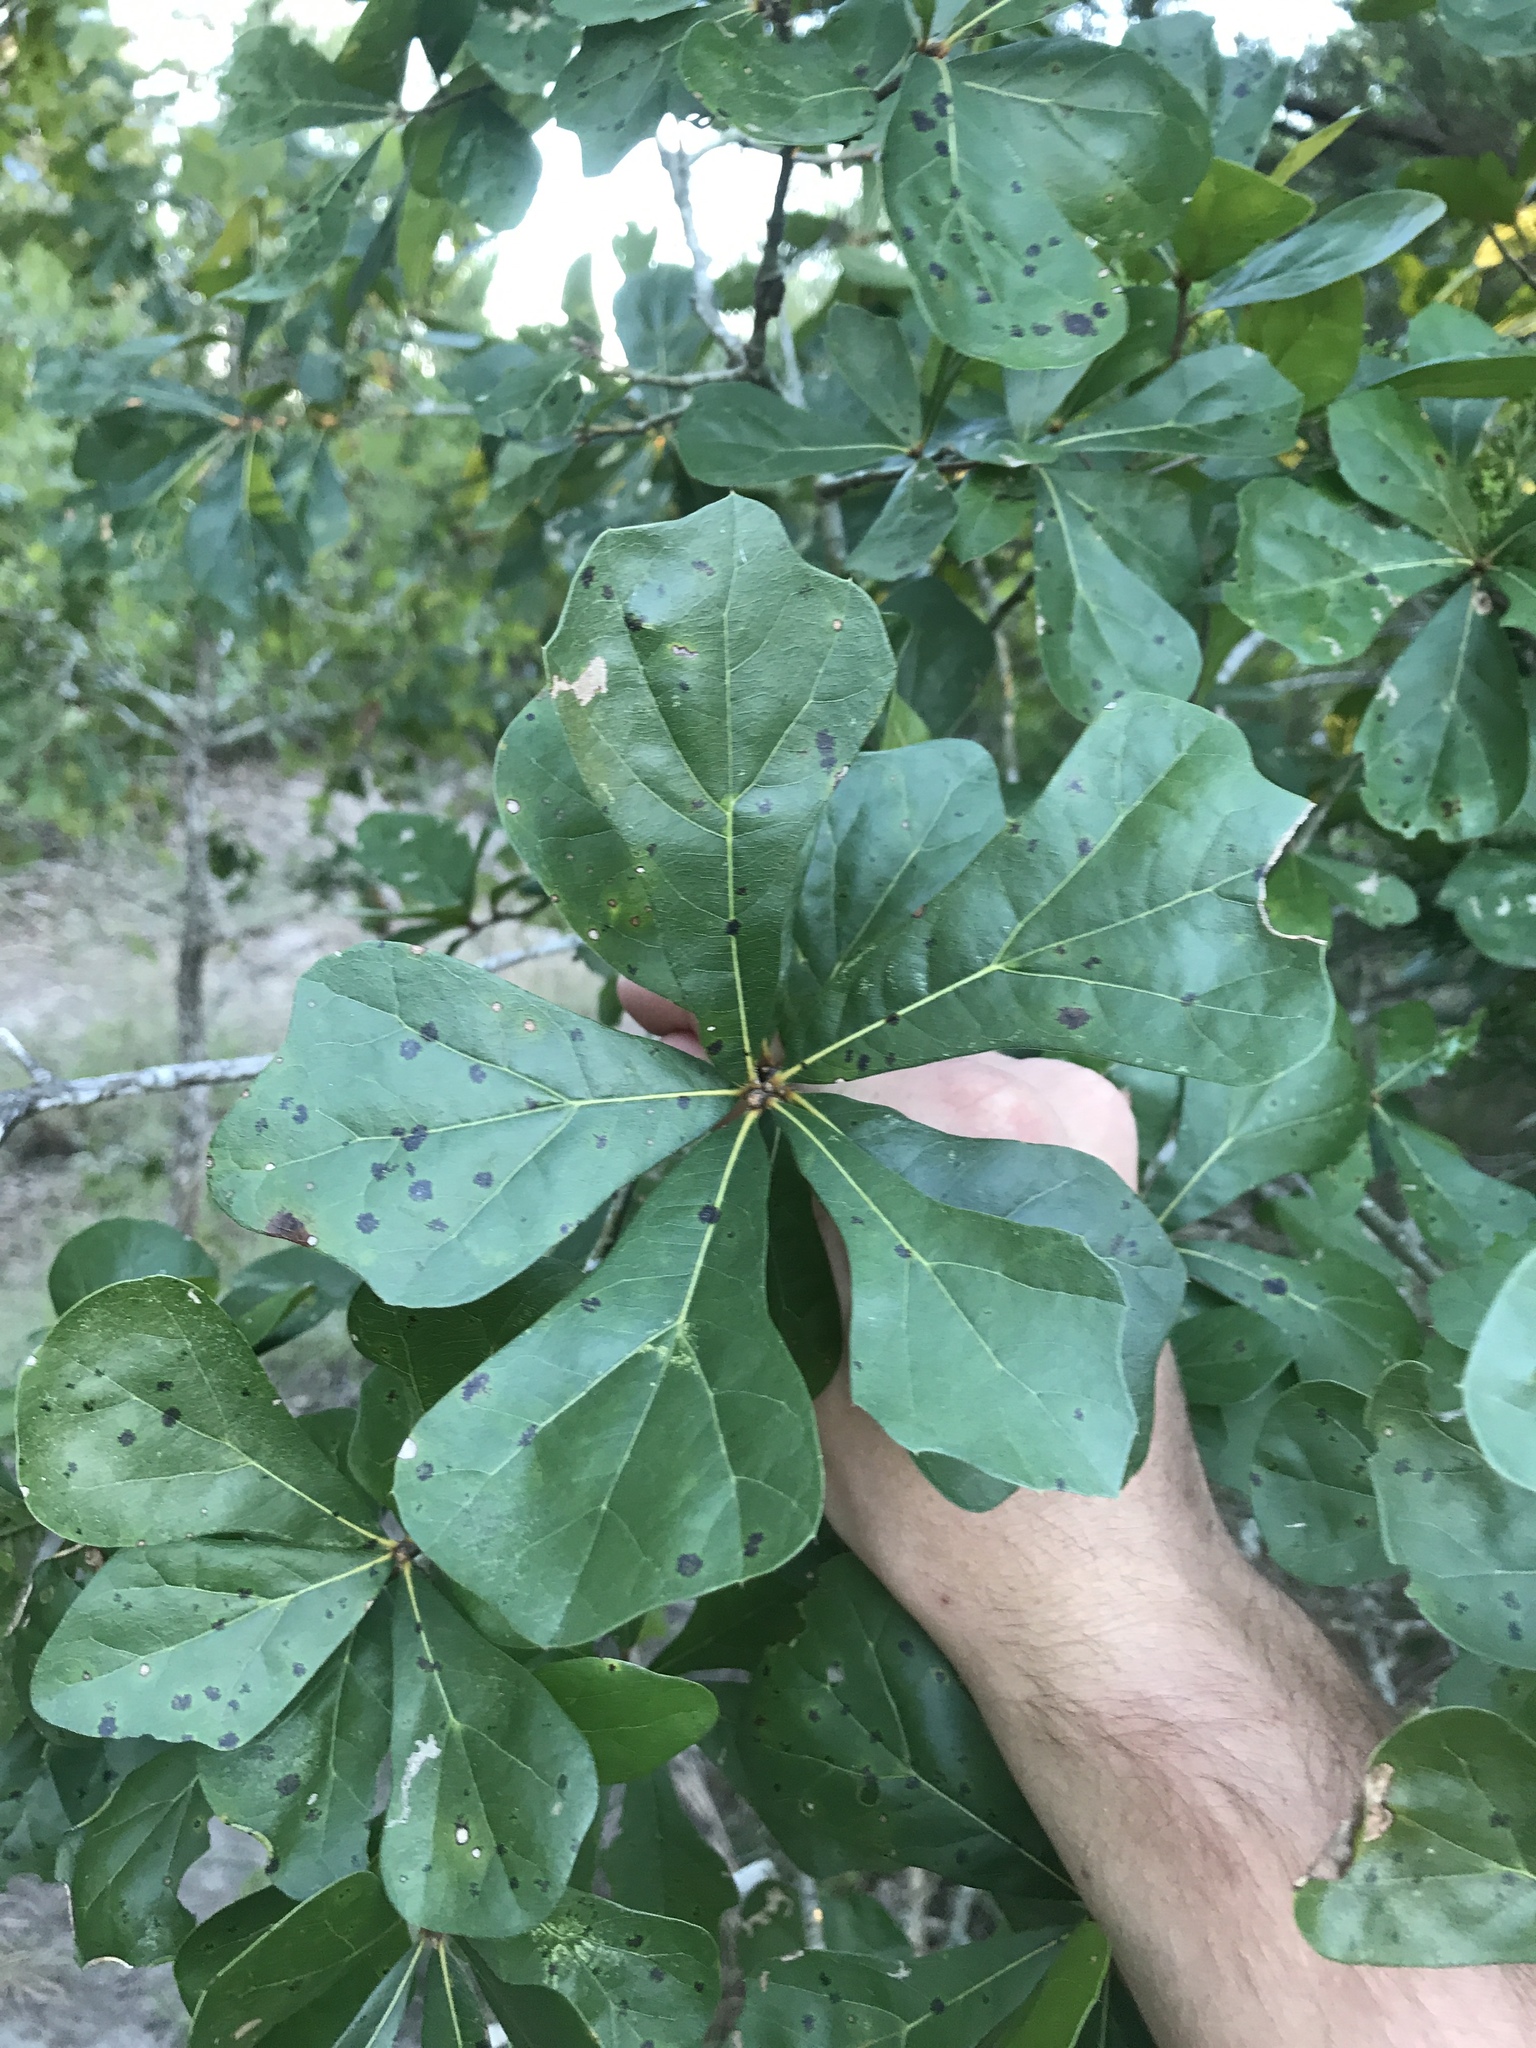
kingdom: Plantae
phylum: Tracheophyta
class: Magnoliopsida
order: Fagales
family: Fagaceae
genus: Quercus
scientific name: Quercus nigra
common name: Water oak
